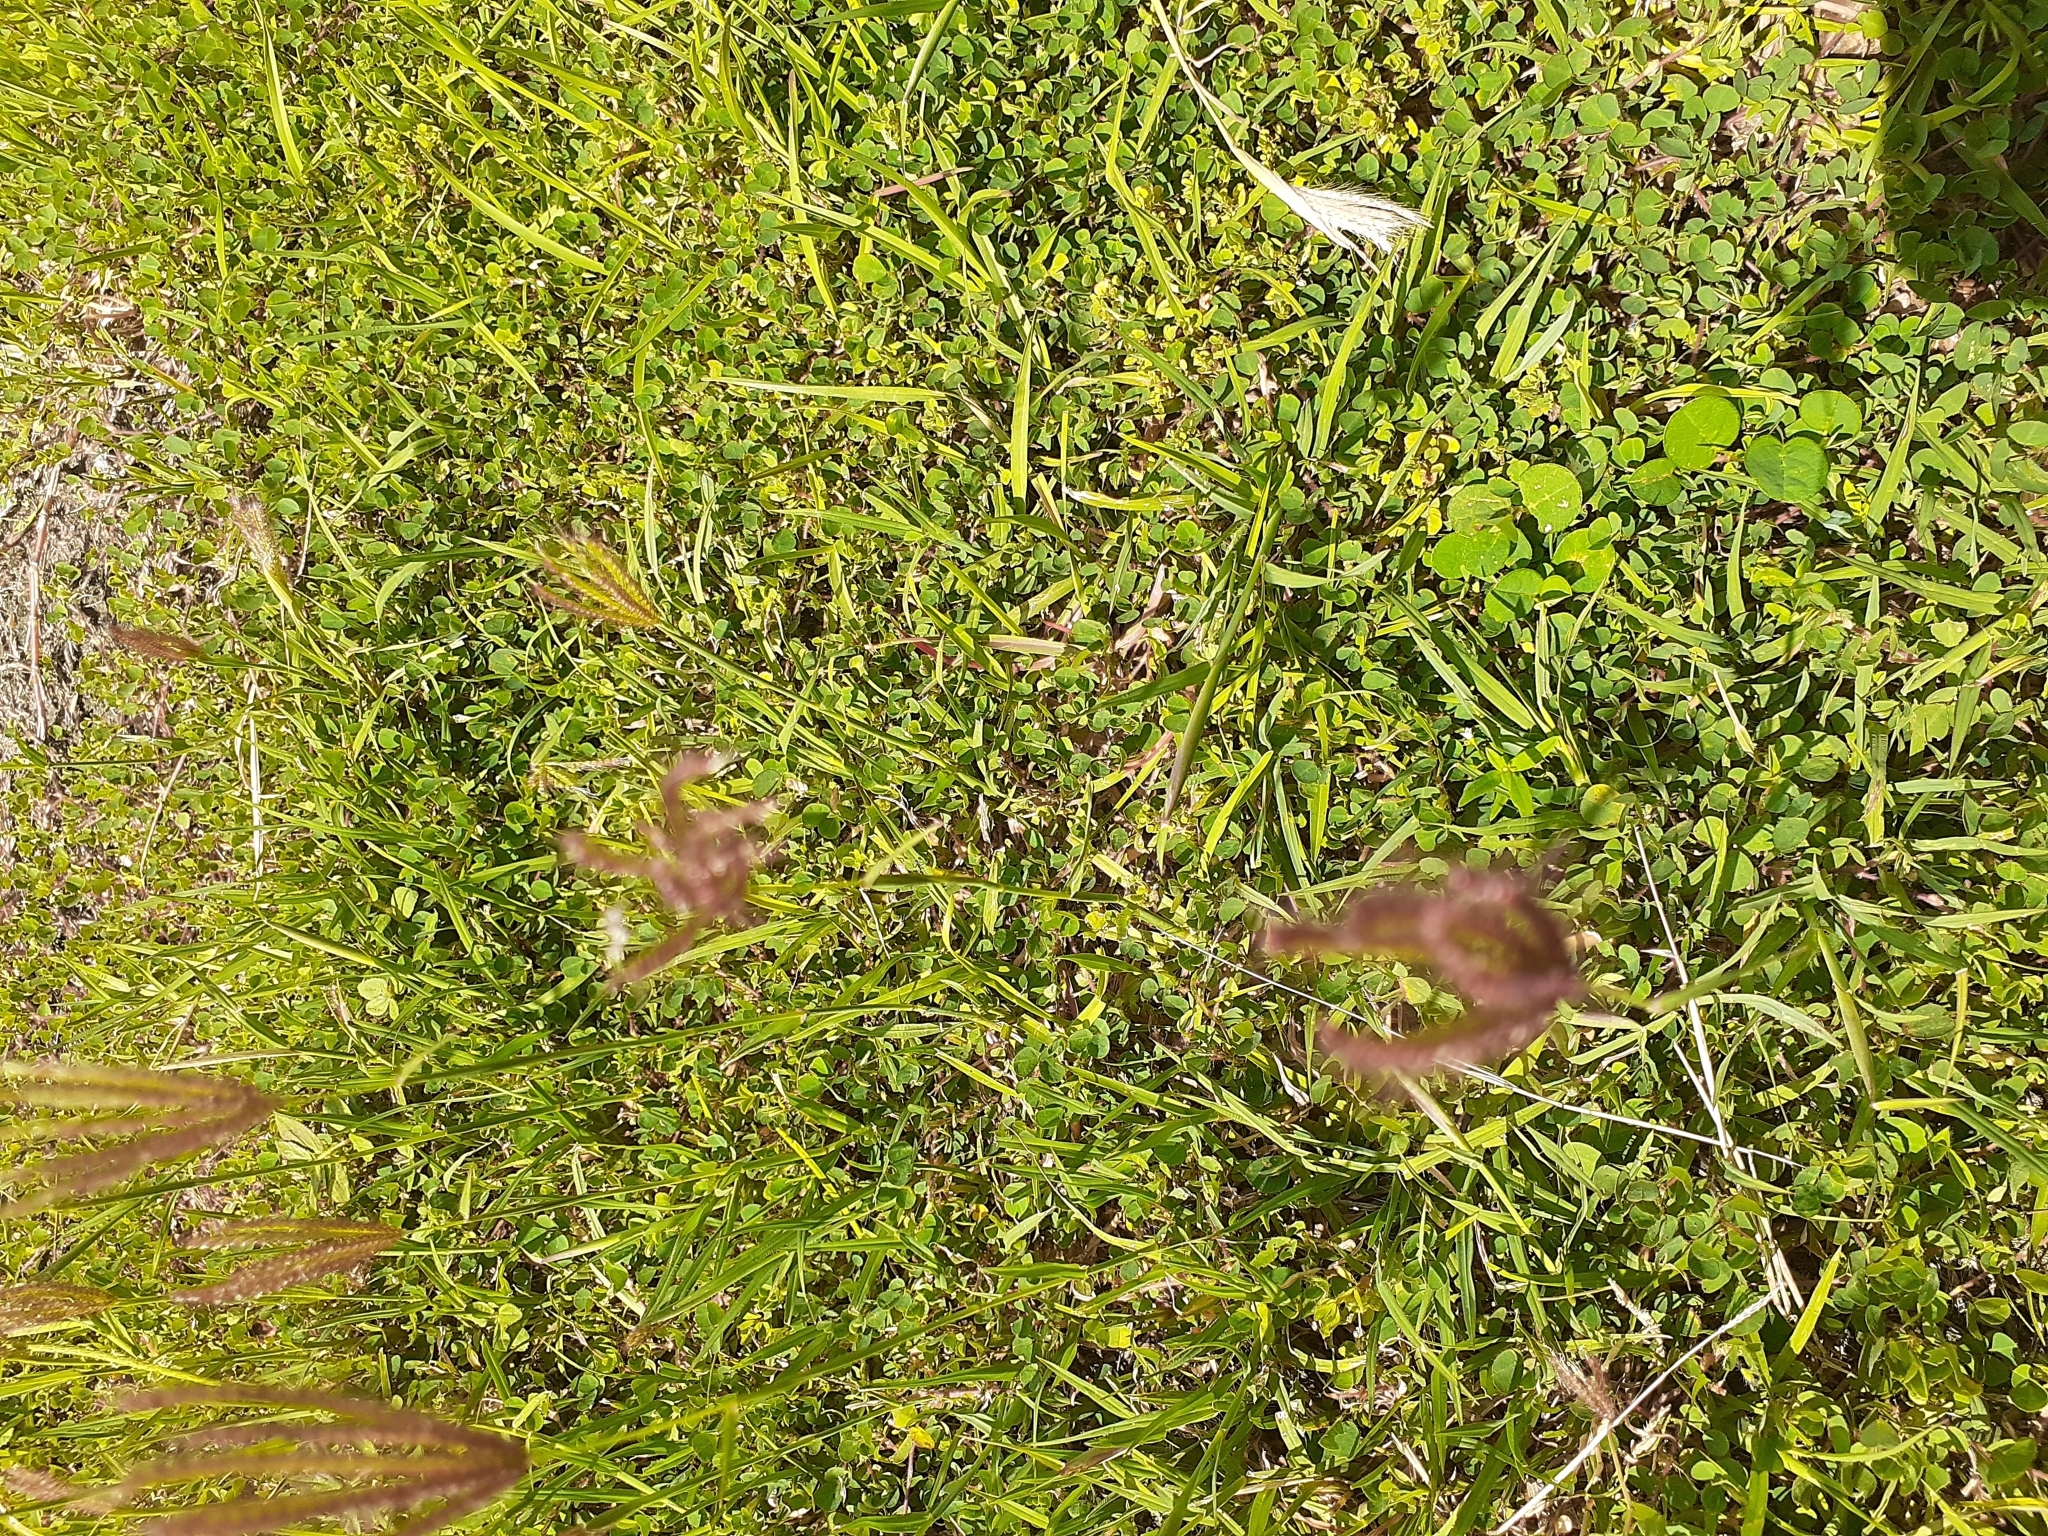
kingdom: Plantae
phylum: Tracheophyta
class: Liliopsida
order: Poales
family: Poaceae
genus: Chloris
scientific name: Chloris barbata
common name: Swollen fingergrass
